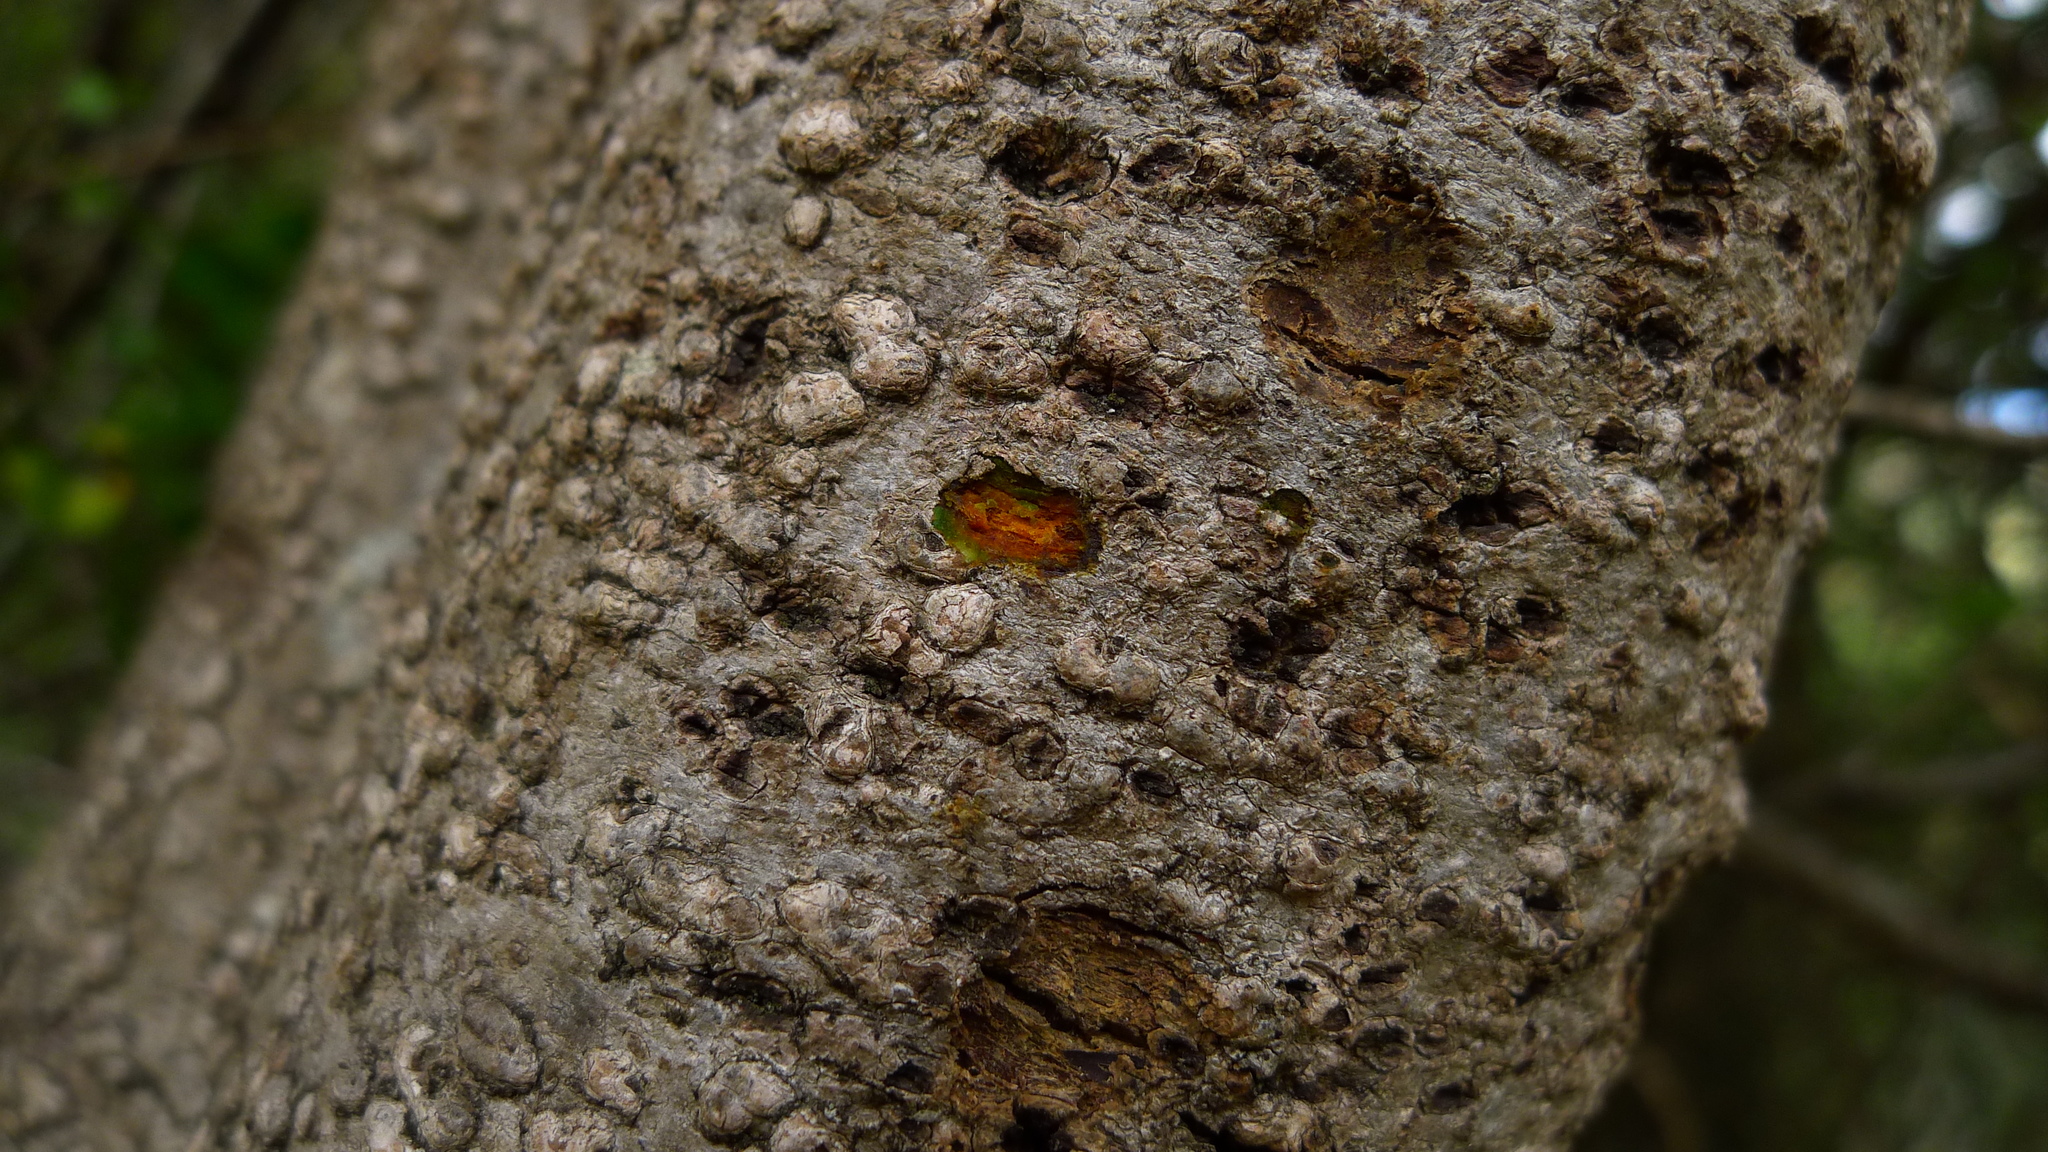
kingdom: Plantae
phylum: Tracheophyta
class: Magnoliopsida
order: Gentianales
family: Rubiaceae
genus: Coprosma
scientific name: Coprosma wallii
